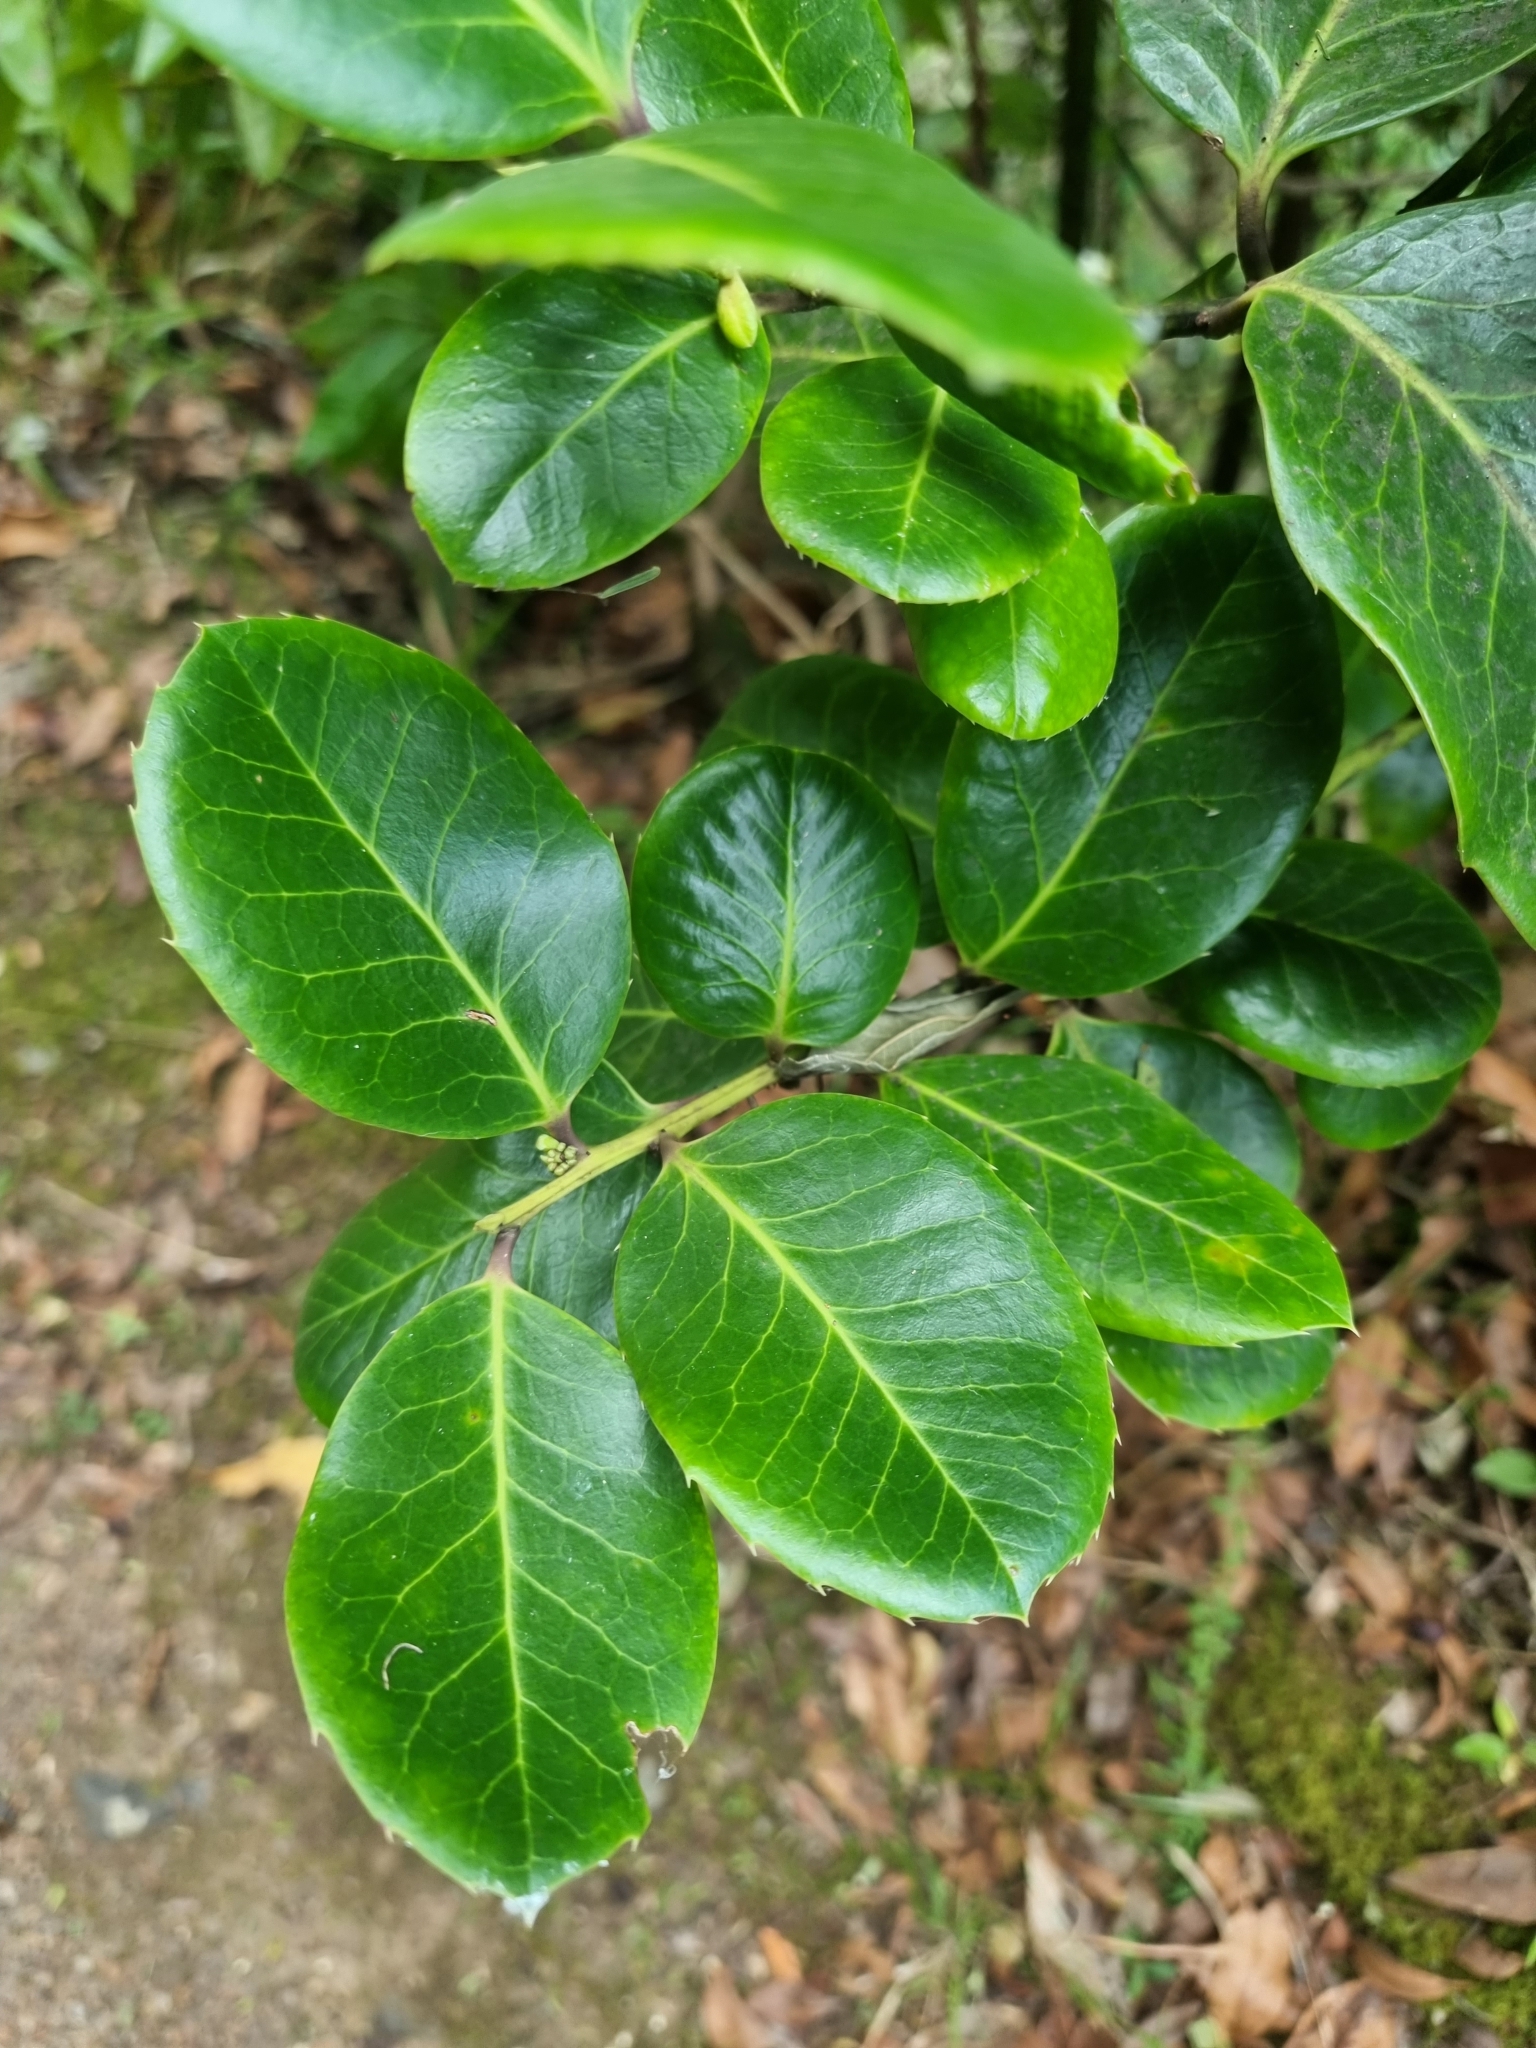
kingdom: Plantae
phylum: Tracheophyta
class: Magnoliopsida
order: Aquifoliales
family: Aquifoliaceae
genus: Ilex
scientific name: Ilex perado
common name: Madeira holly
